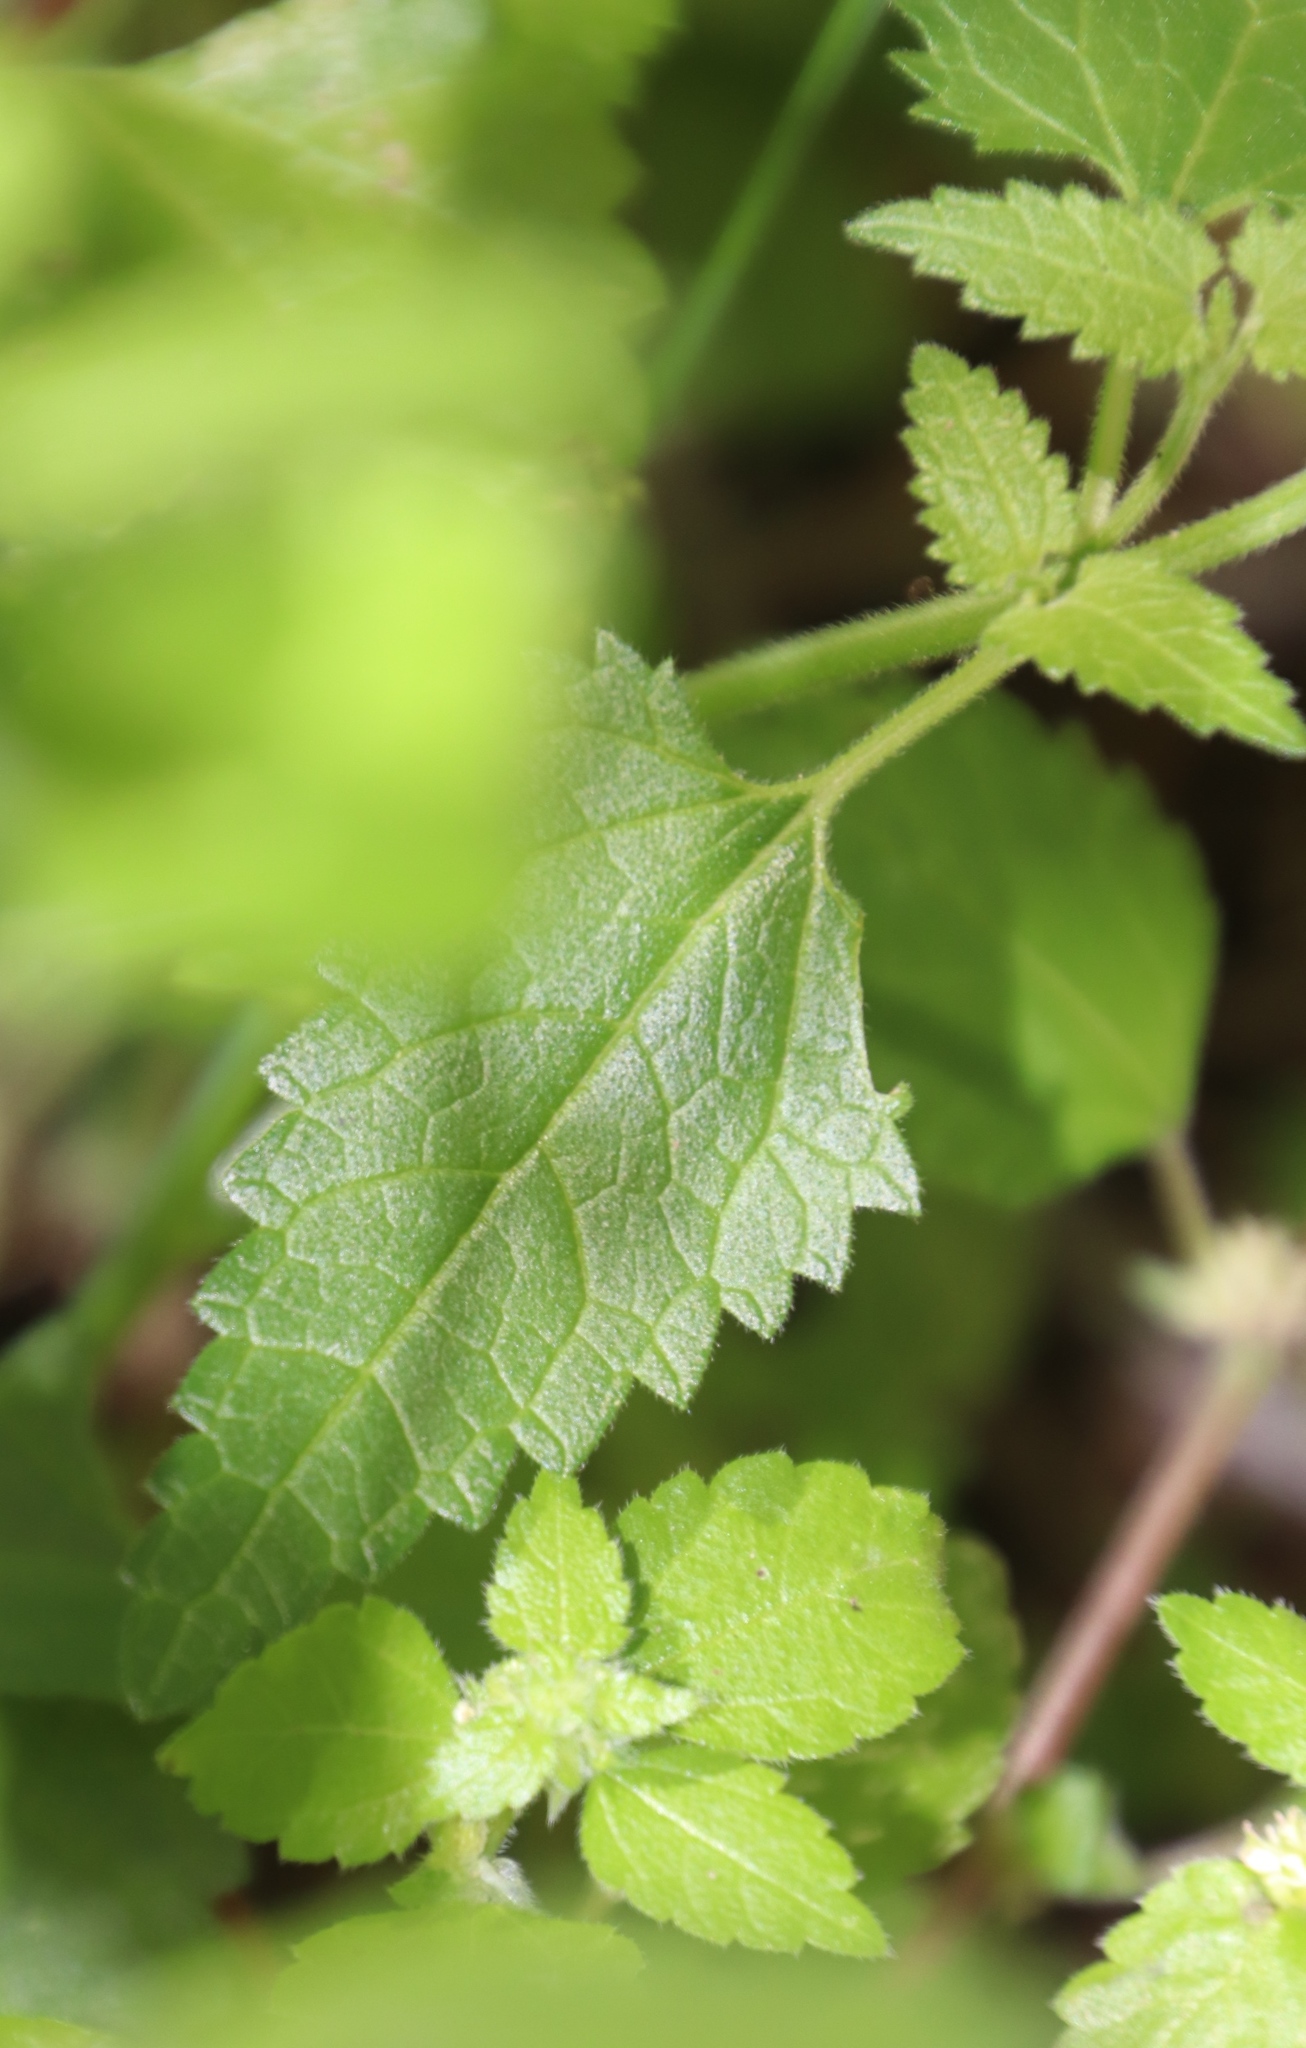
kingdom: Plantae
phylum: Tracheophyta
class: Magnoliopsida
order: Rosales
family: Urticaceae
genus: Didymodoxa
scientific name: Didymodoxa capensis
